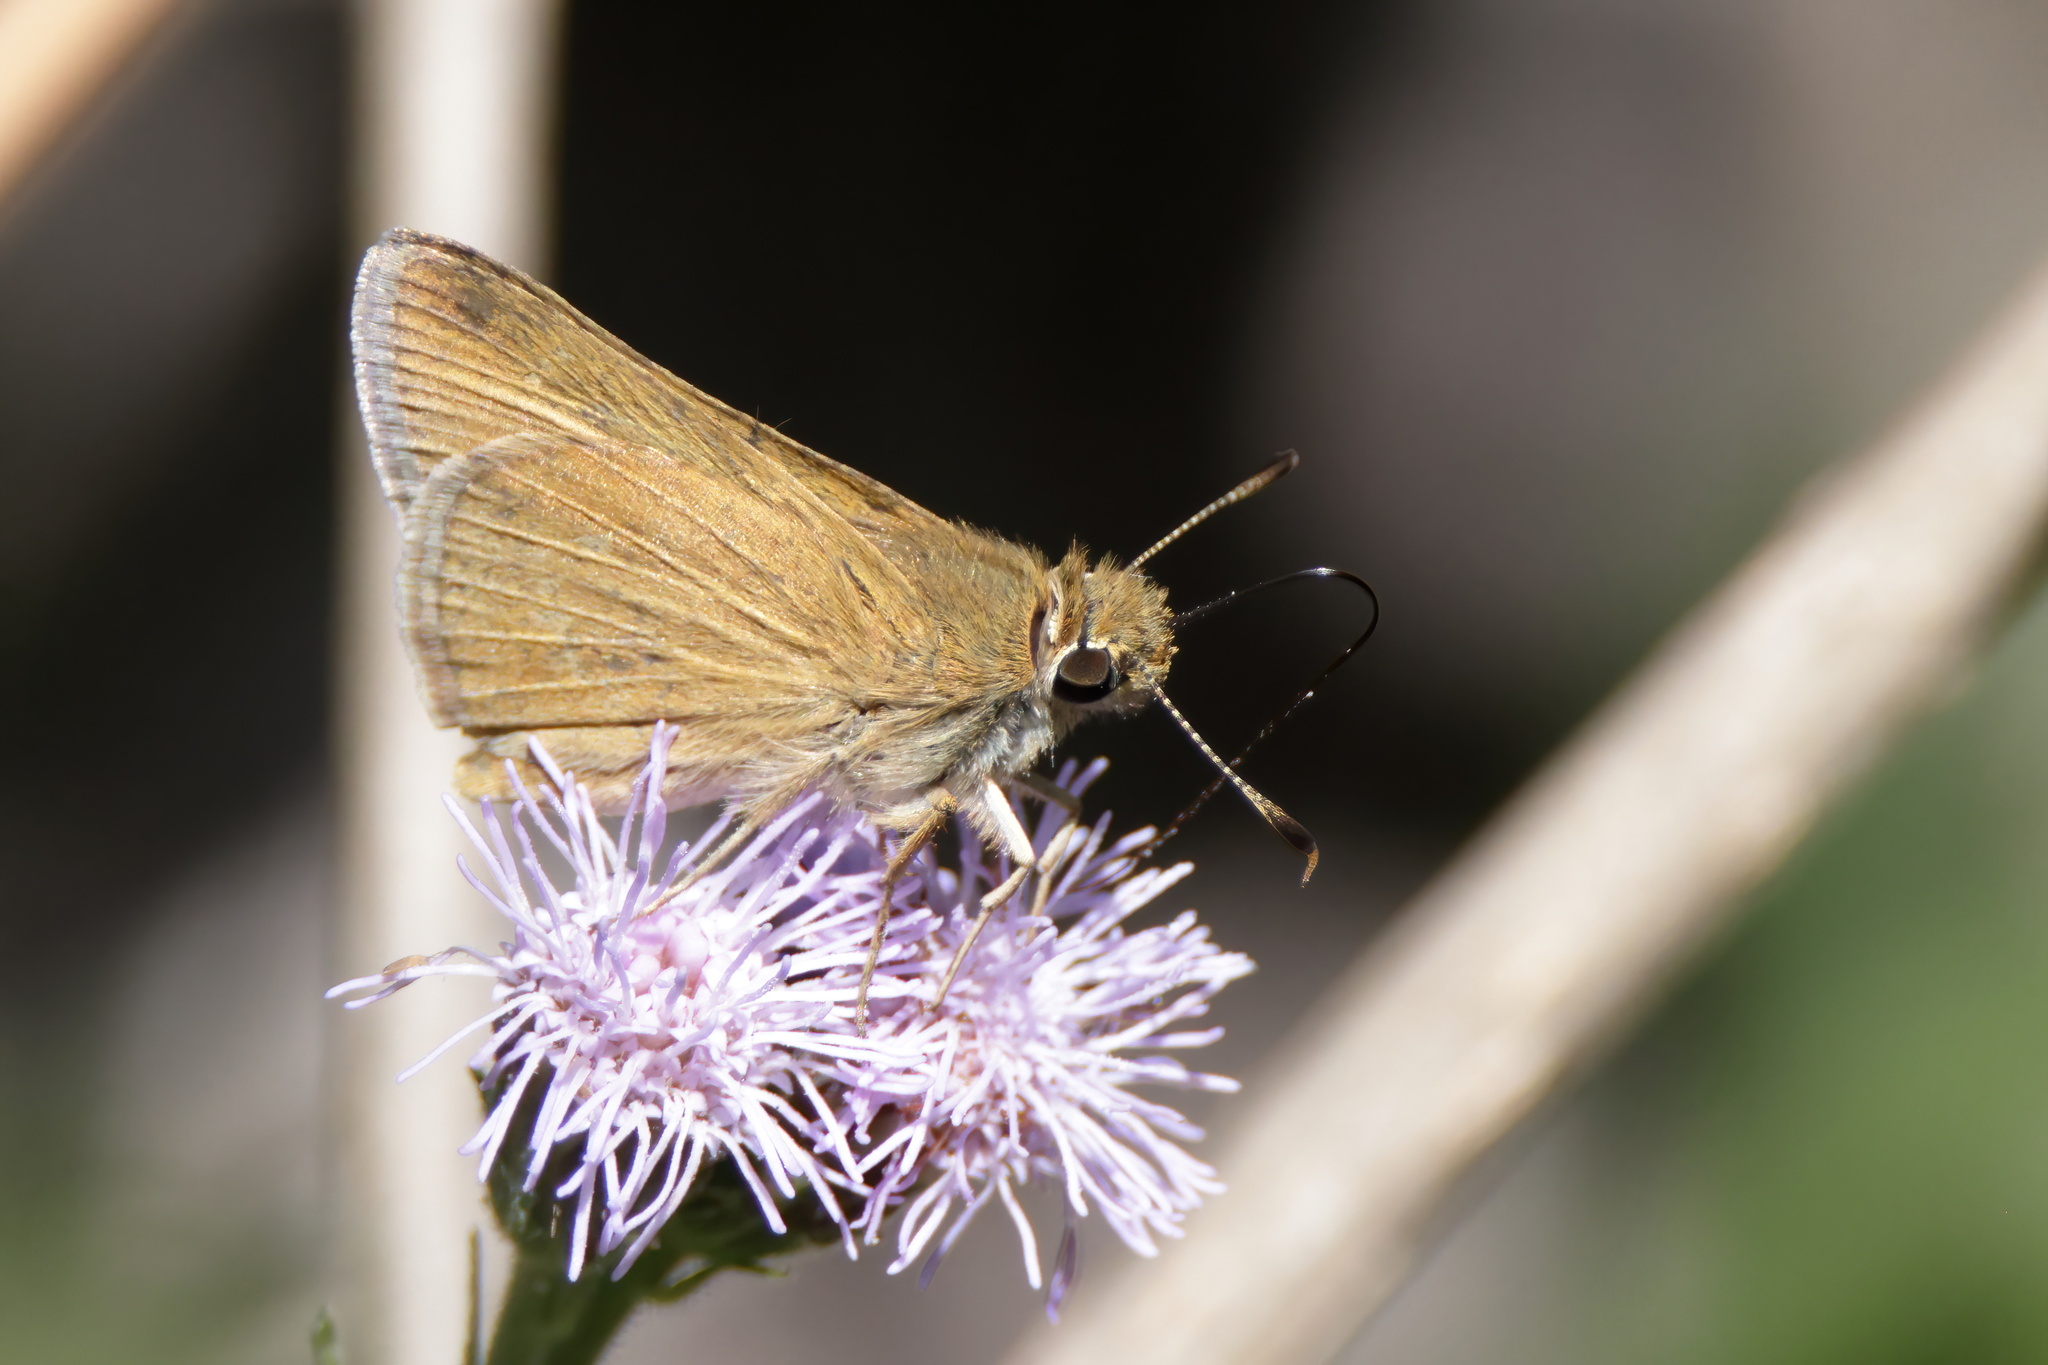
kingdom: Animalia
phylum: Arthropoda
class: Insecta
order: Lepidoptera
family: Hesperiidae
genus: Nastra
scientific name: Nastra julia
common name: Julia's skipper
